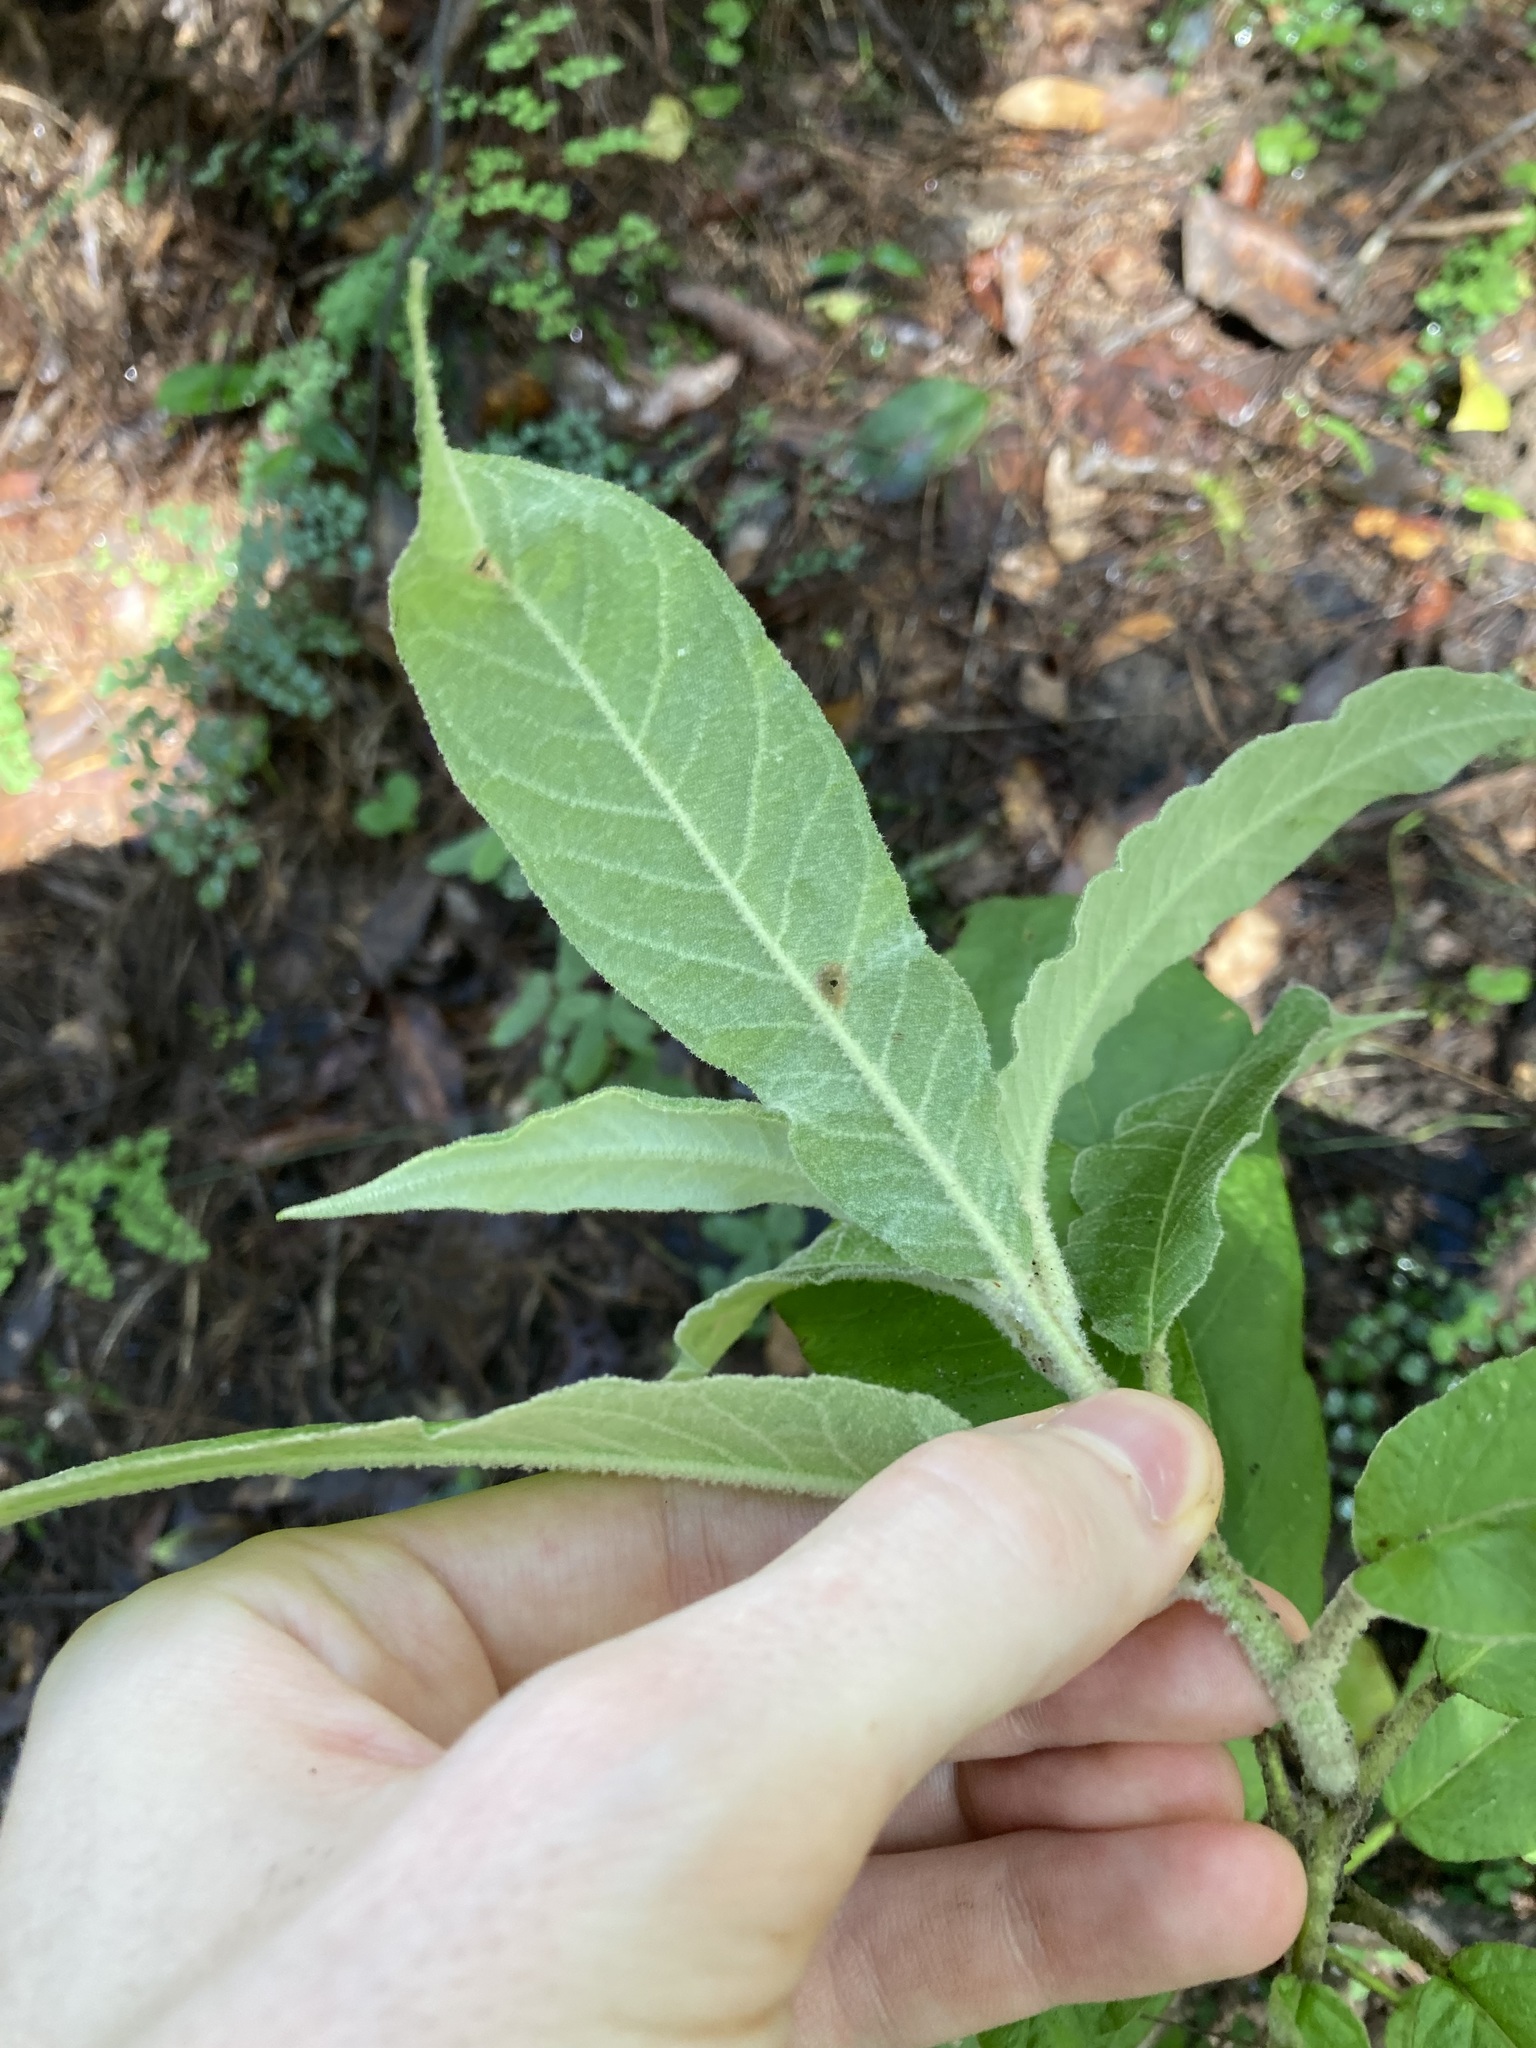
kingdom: Plantae
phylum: Tracheophyta
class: Magnoliopsida
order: Apiales
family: Araliaceae
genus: Astrotricha
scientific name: Astrotricha floccosa
